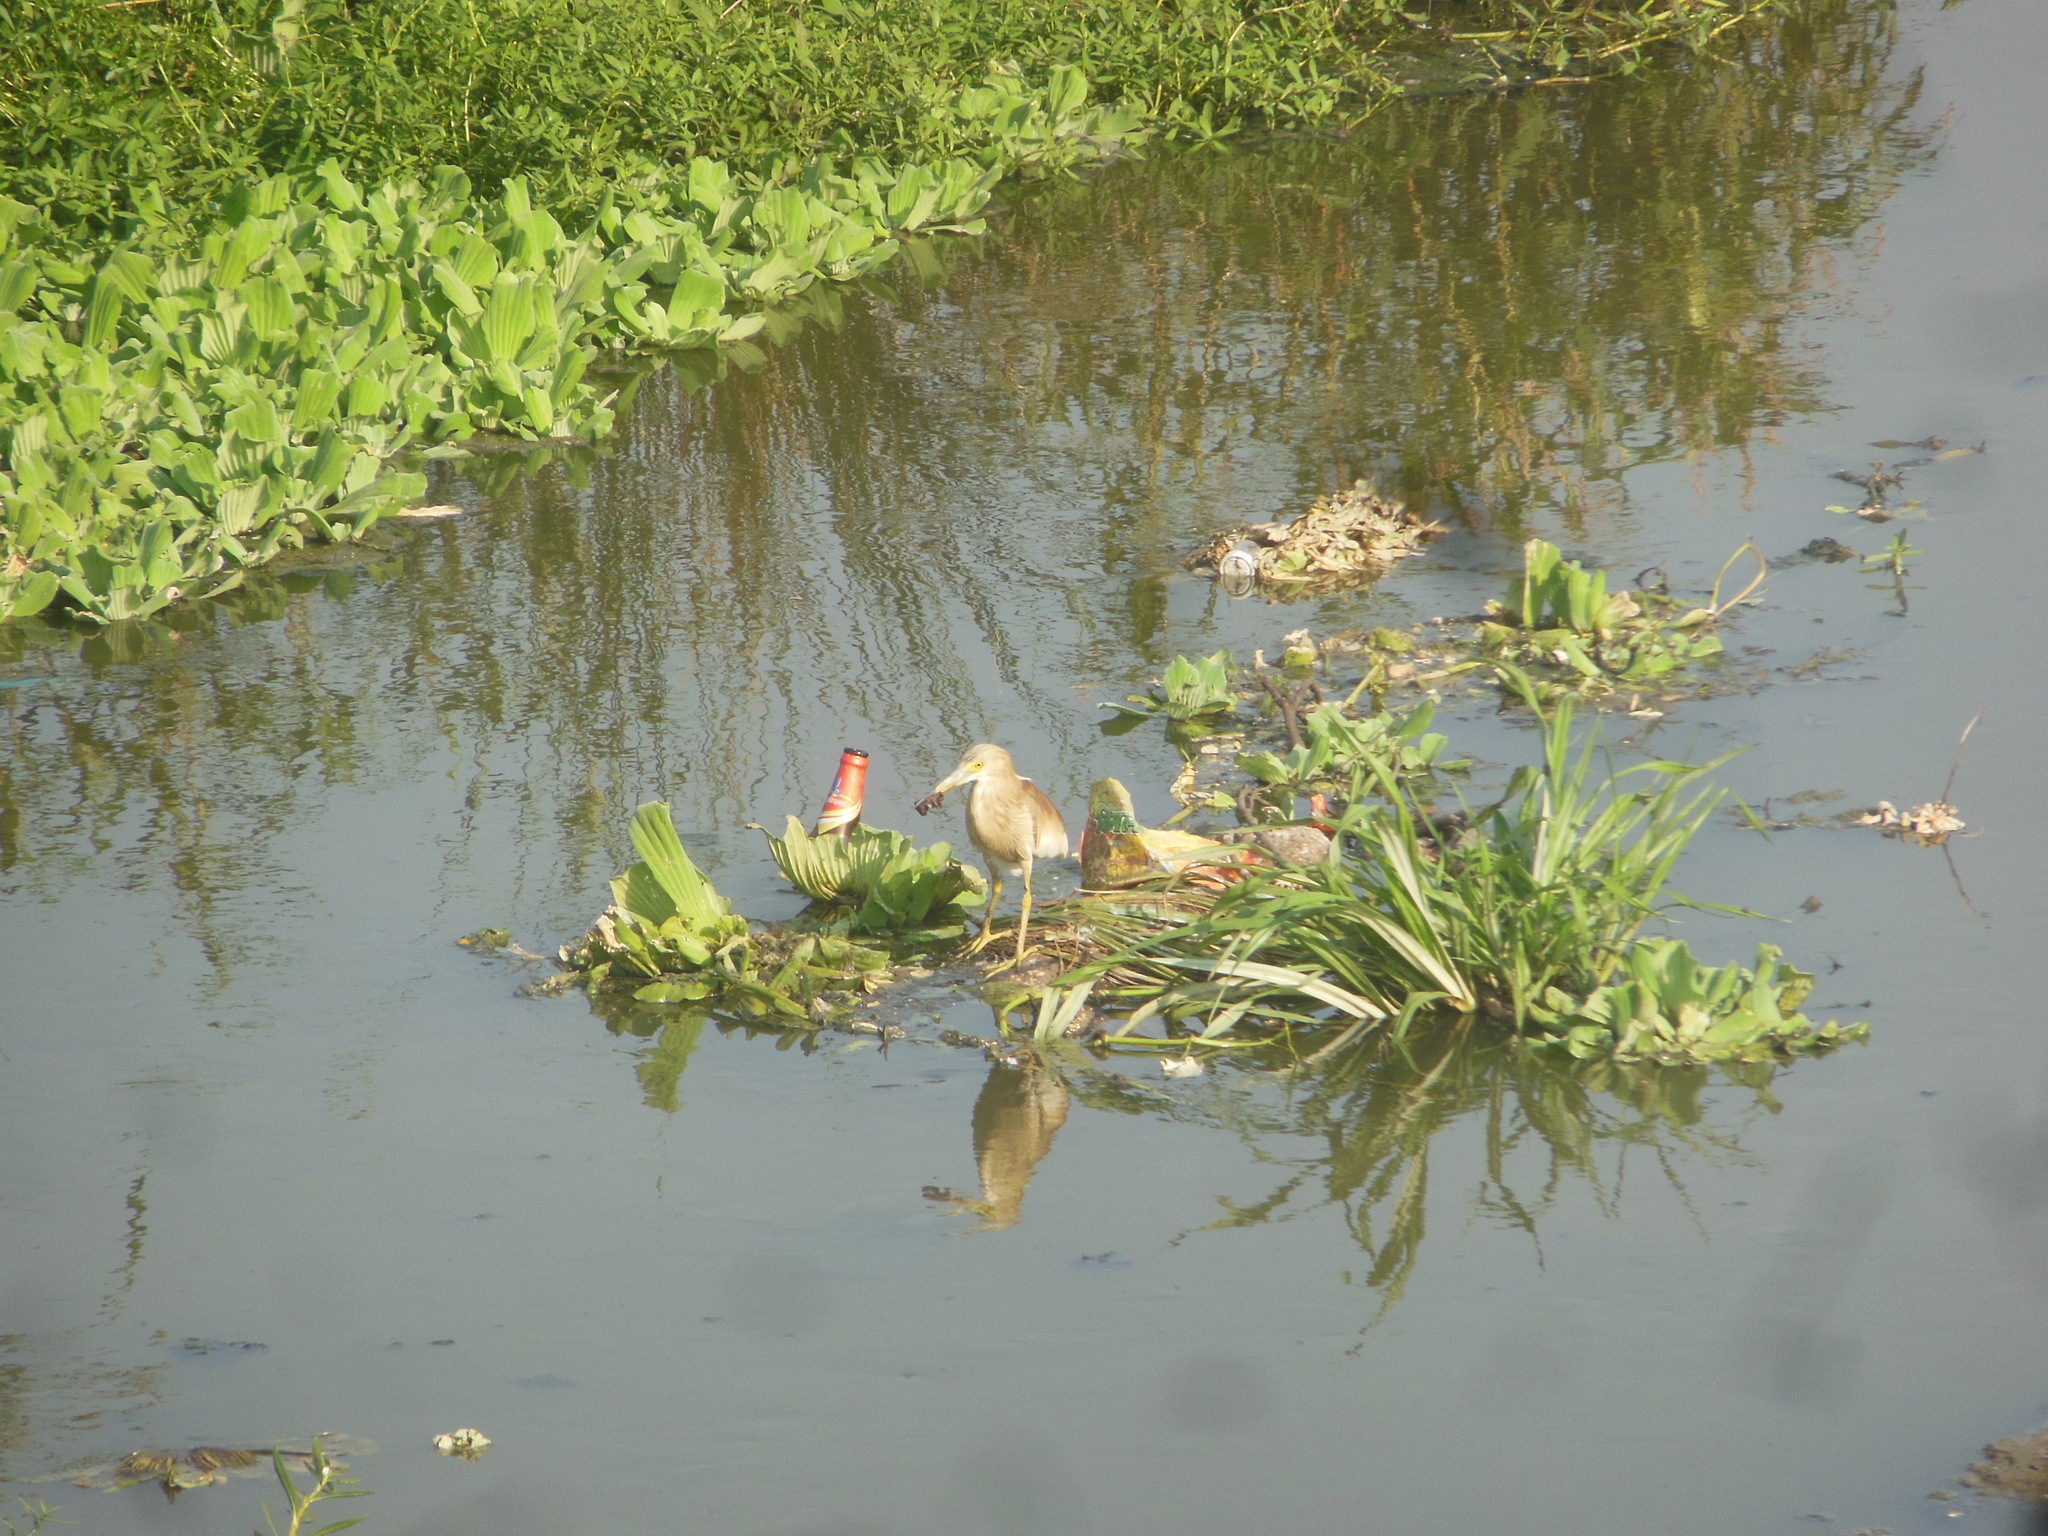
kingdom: Animalia
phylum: Chordata
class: Aves
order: Pelecaniformes
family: Ardeidae
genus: Ardeola
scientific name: Ardeola grayii
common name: Indian pond heron
